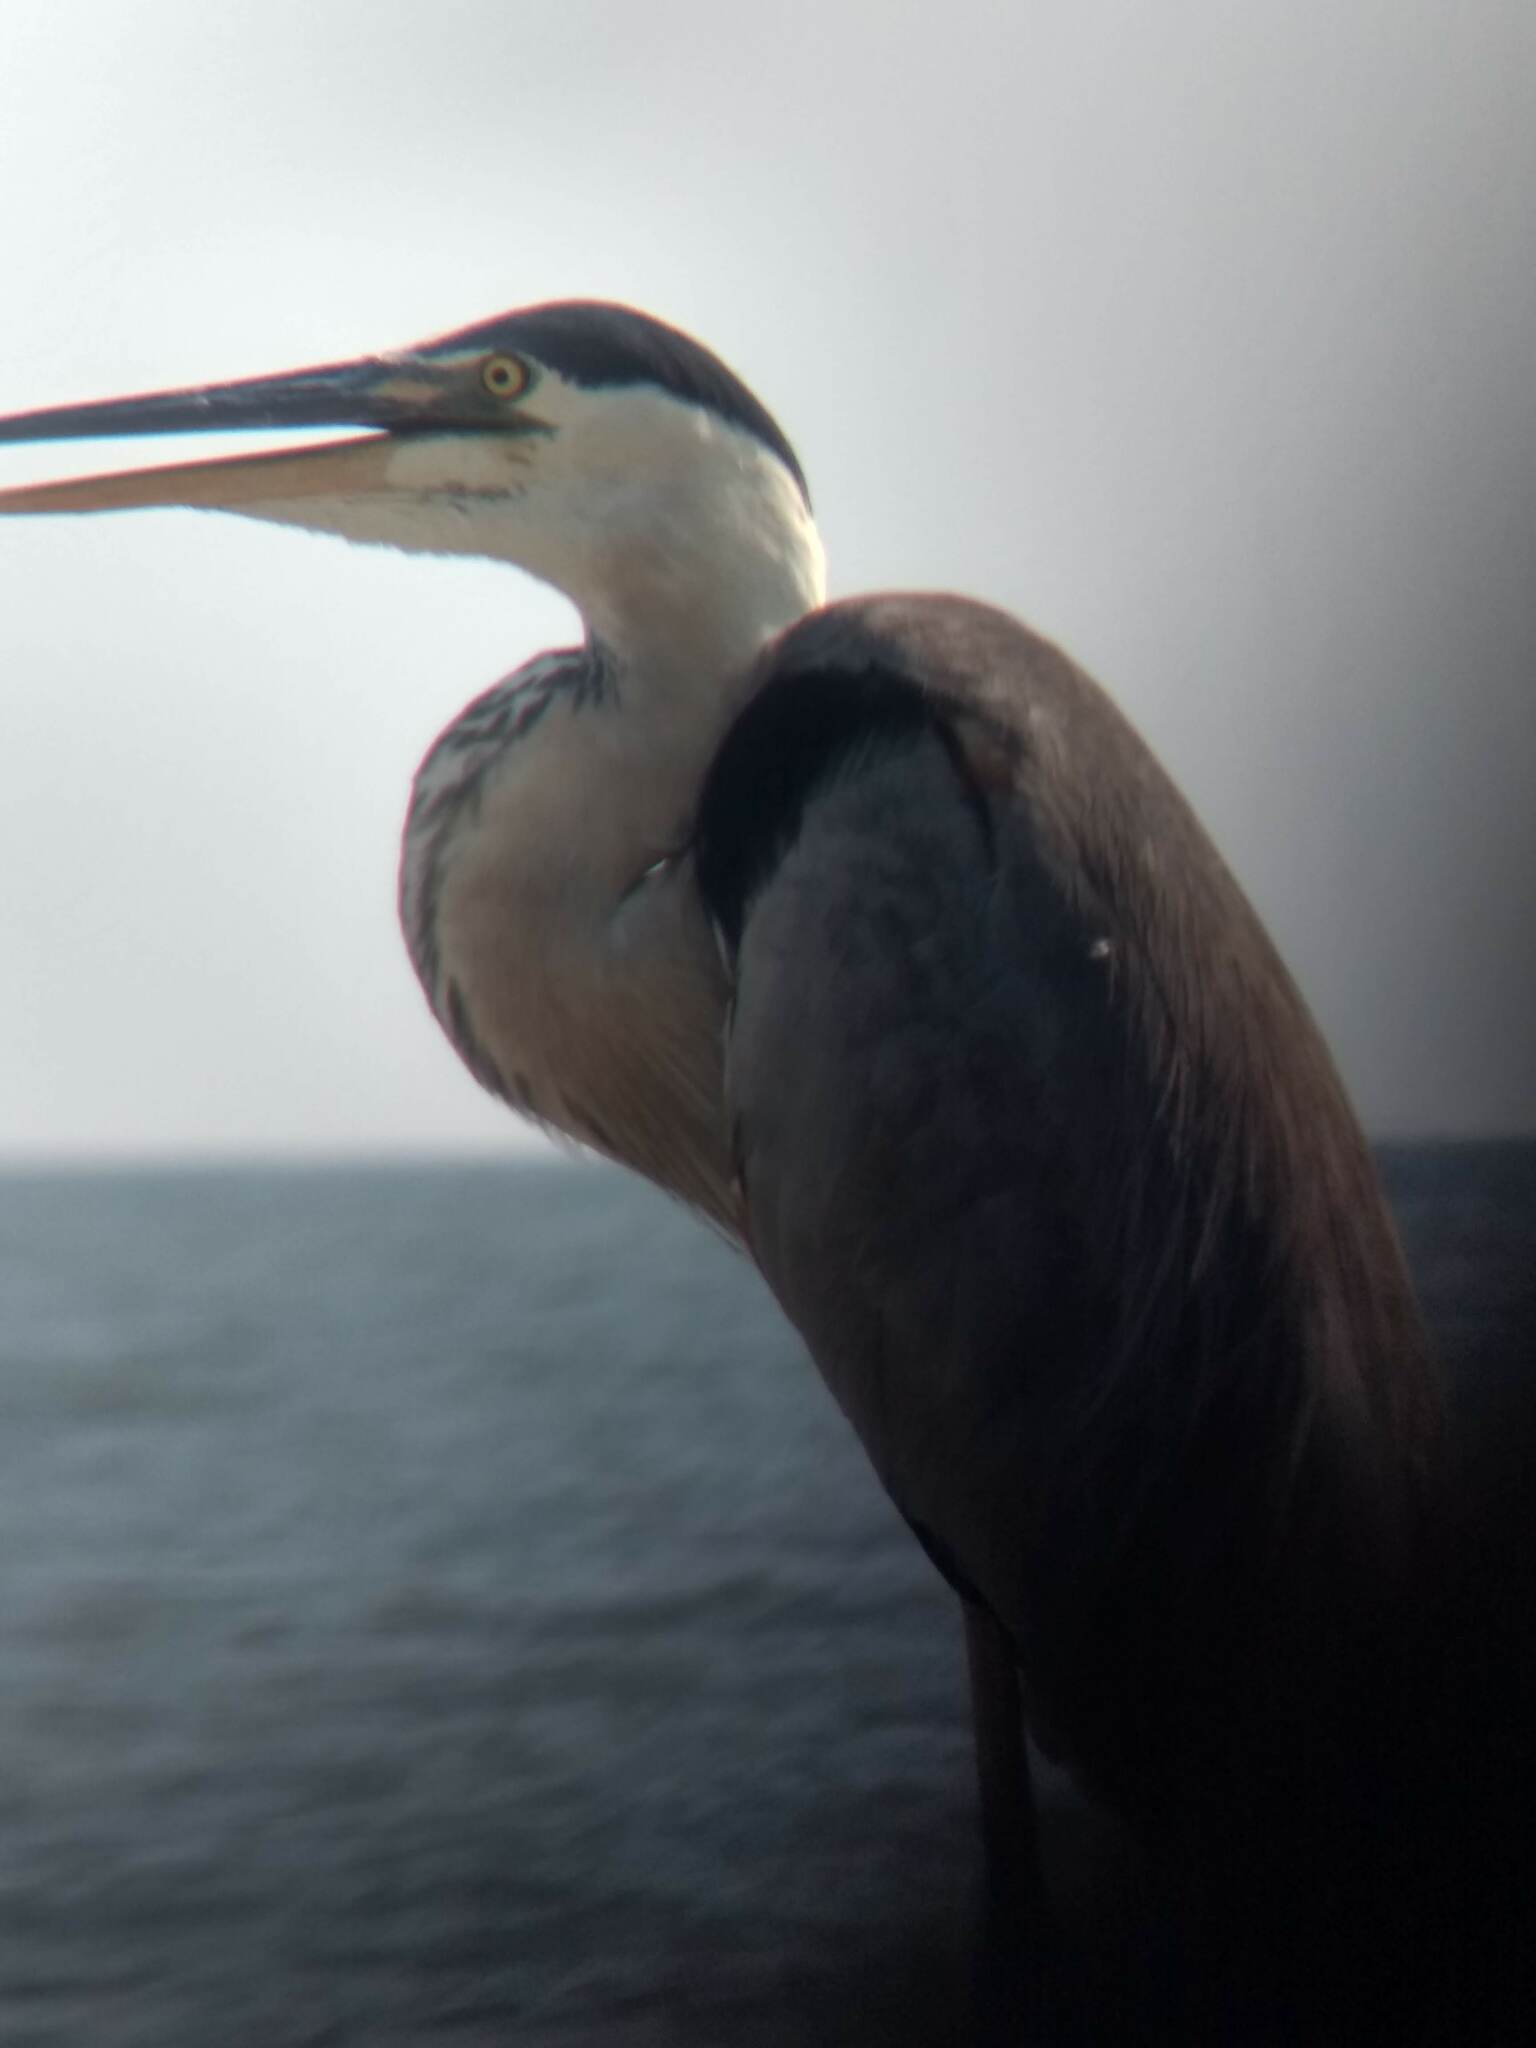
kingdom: Animalia
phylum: Chordata
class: Aves
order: Pelecaniformes
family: Ardeidae
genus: Ardea
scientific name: Ardea herodias
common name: Great blue heron
